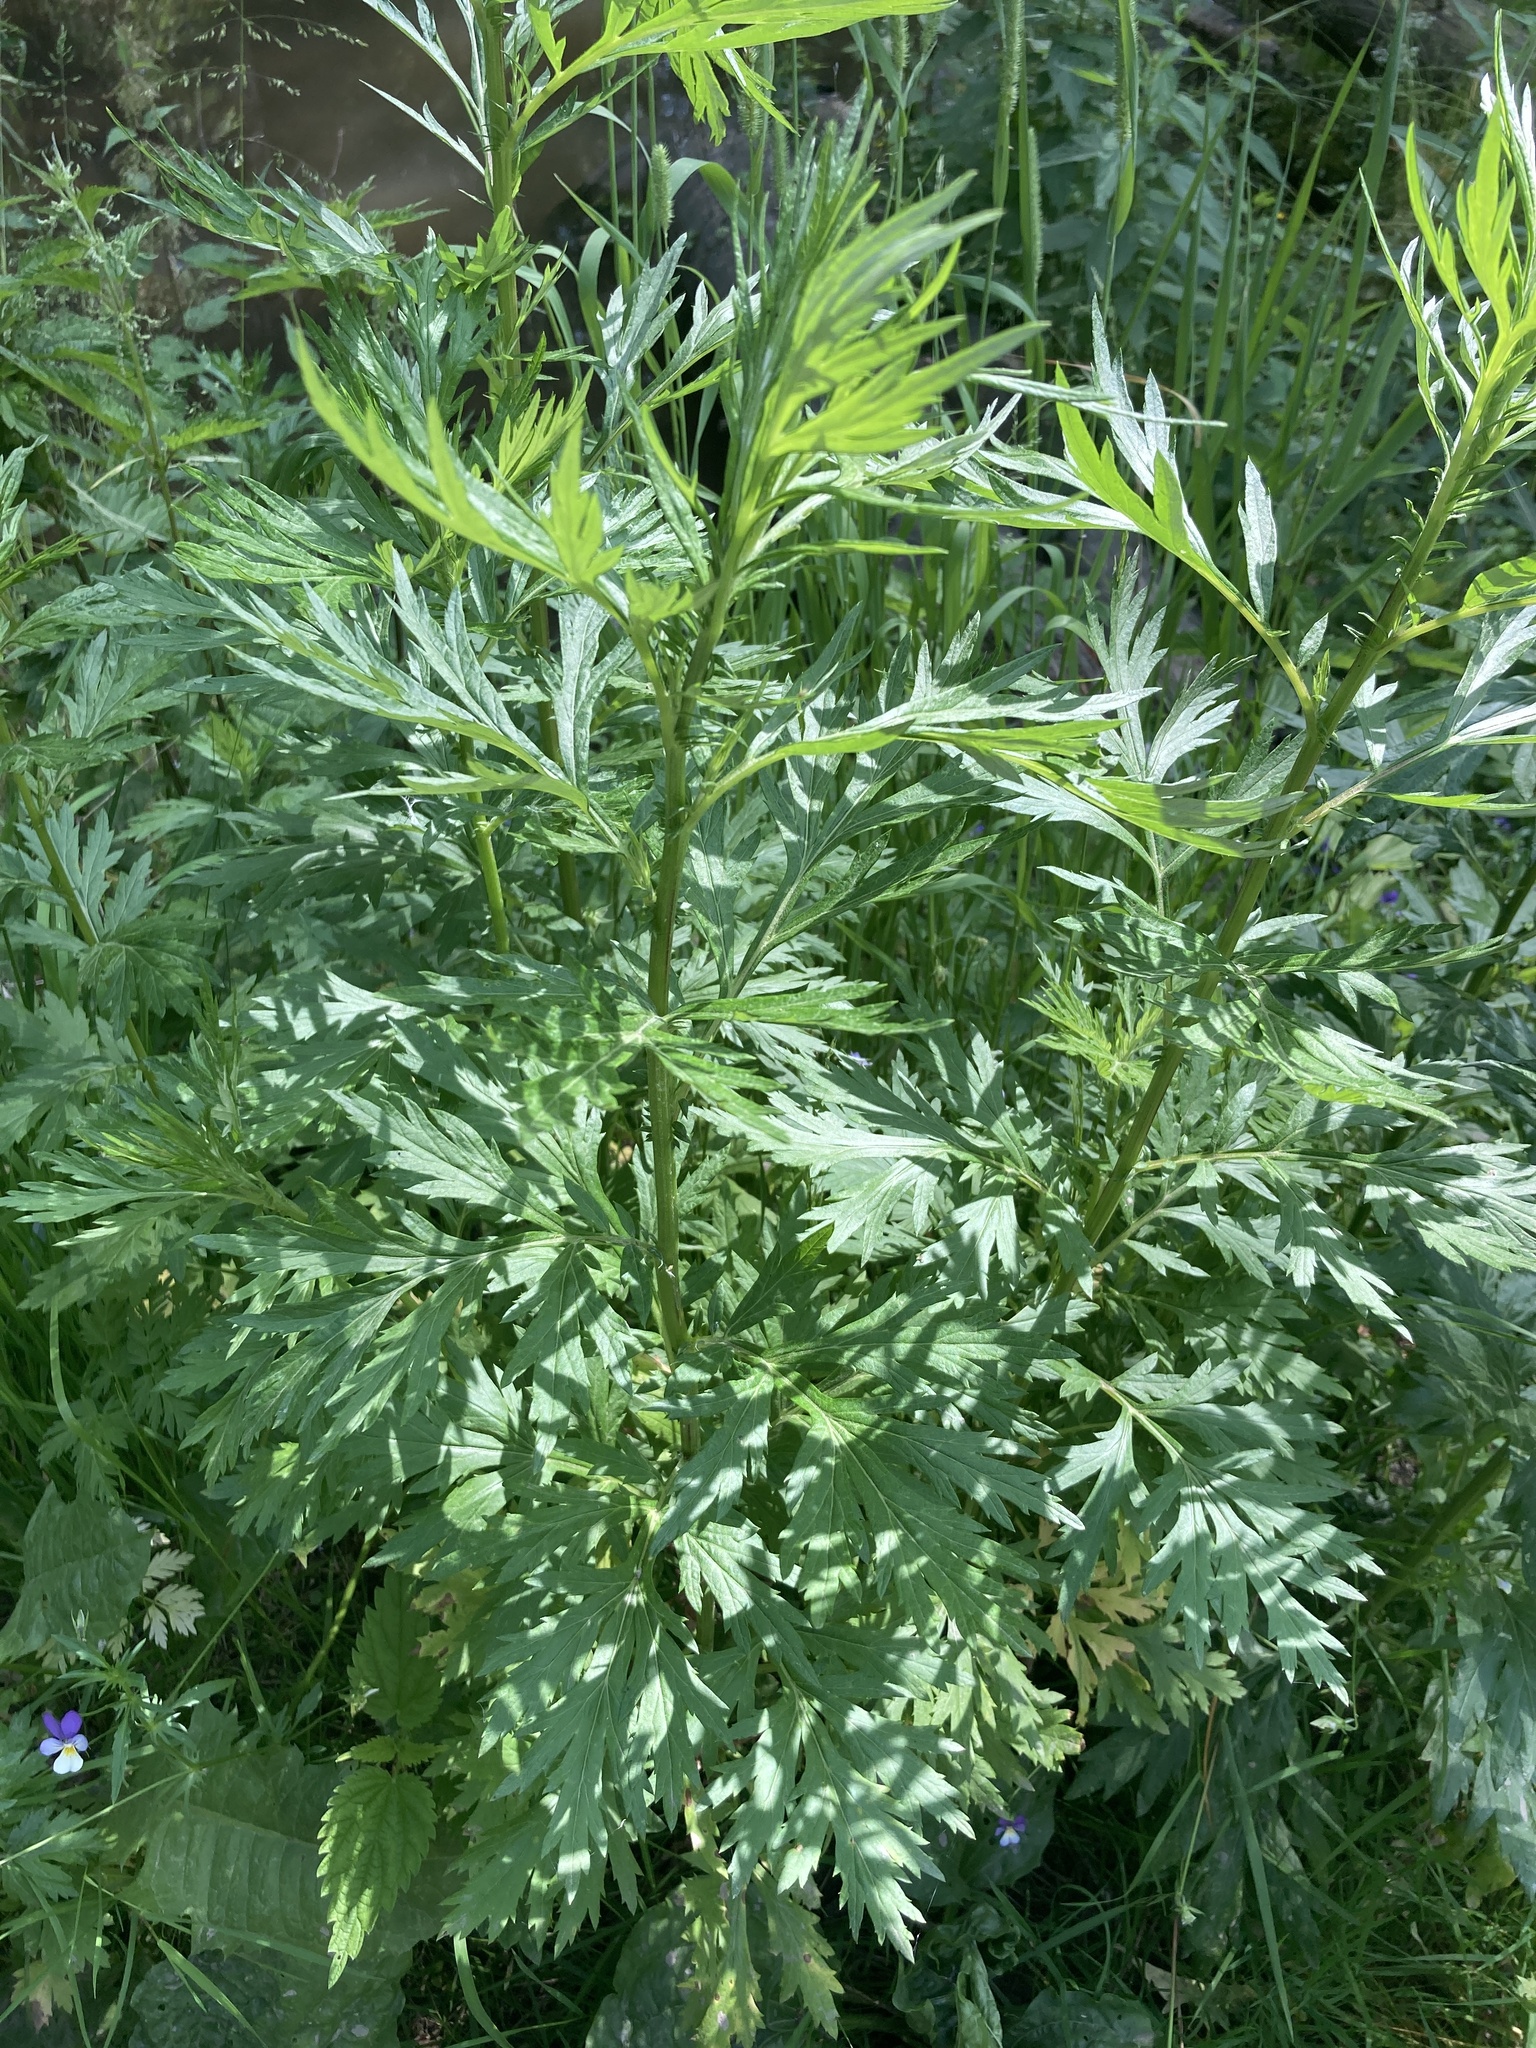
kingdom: Plantae
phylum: Tracheophyta
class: Magnoliopsida
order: Asterales
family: Asteraceae
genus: Artemisia
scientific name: Artemisia vulgaris
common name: Mugwort
